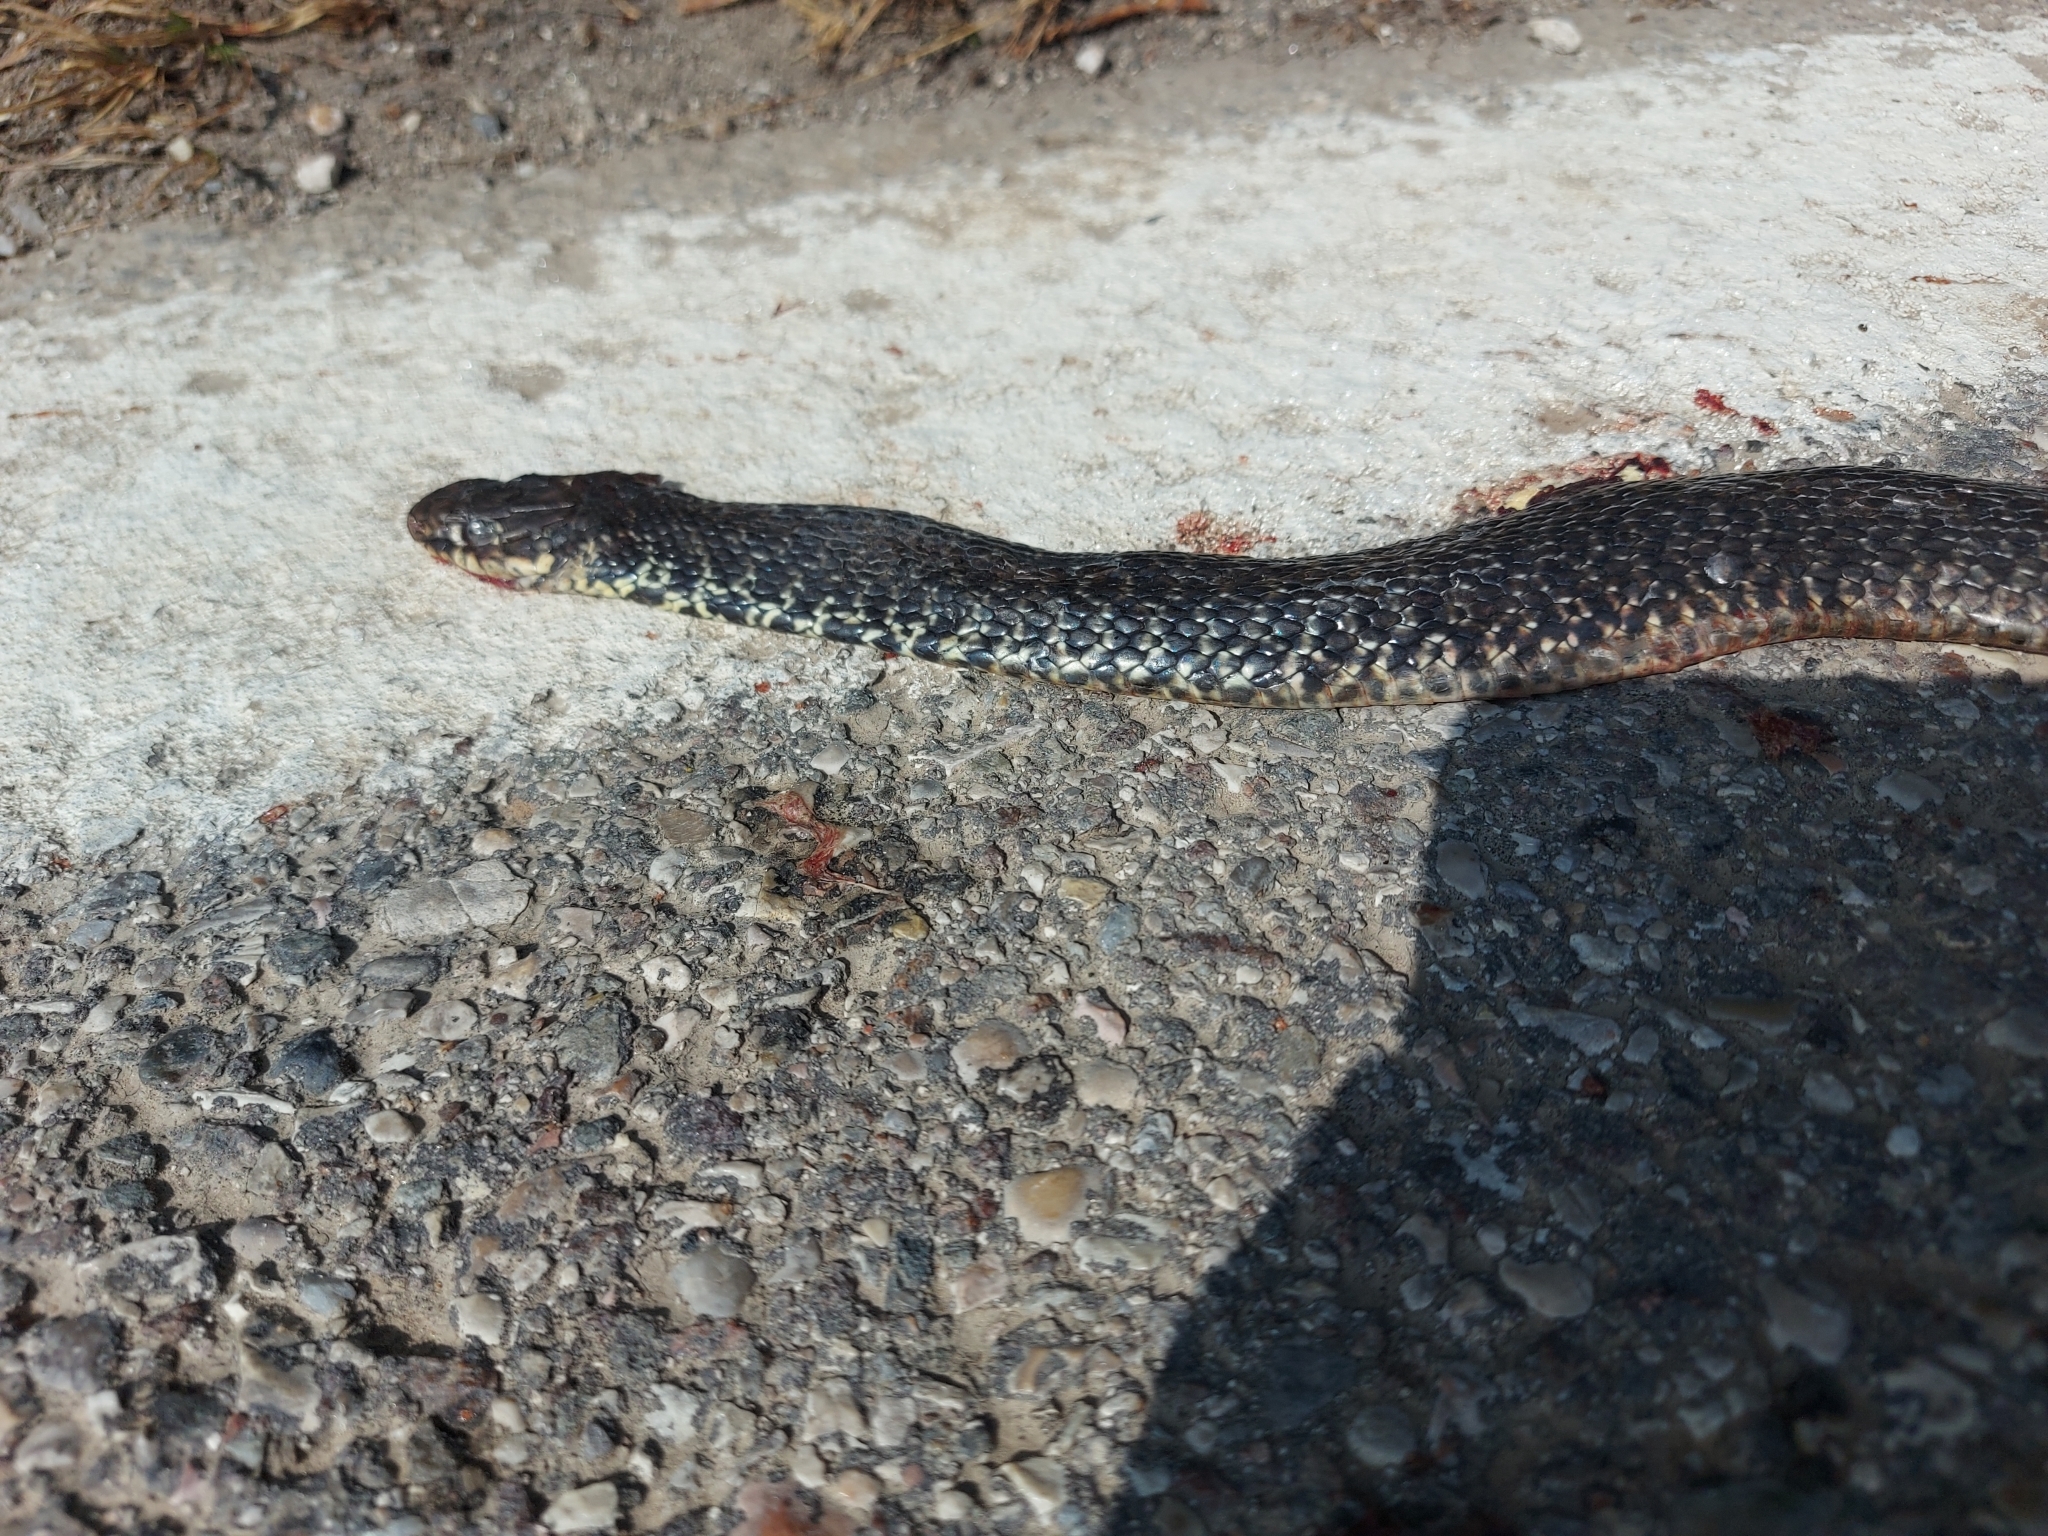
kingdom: Animalia
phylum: Chordata
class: Squamata
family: Colubridae
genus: Hierophis
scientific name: Hierophis viridiflavus
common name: Green whip snake
